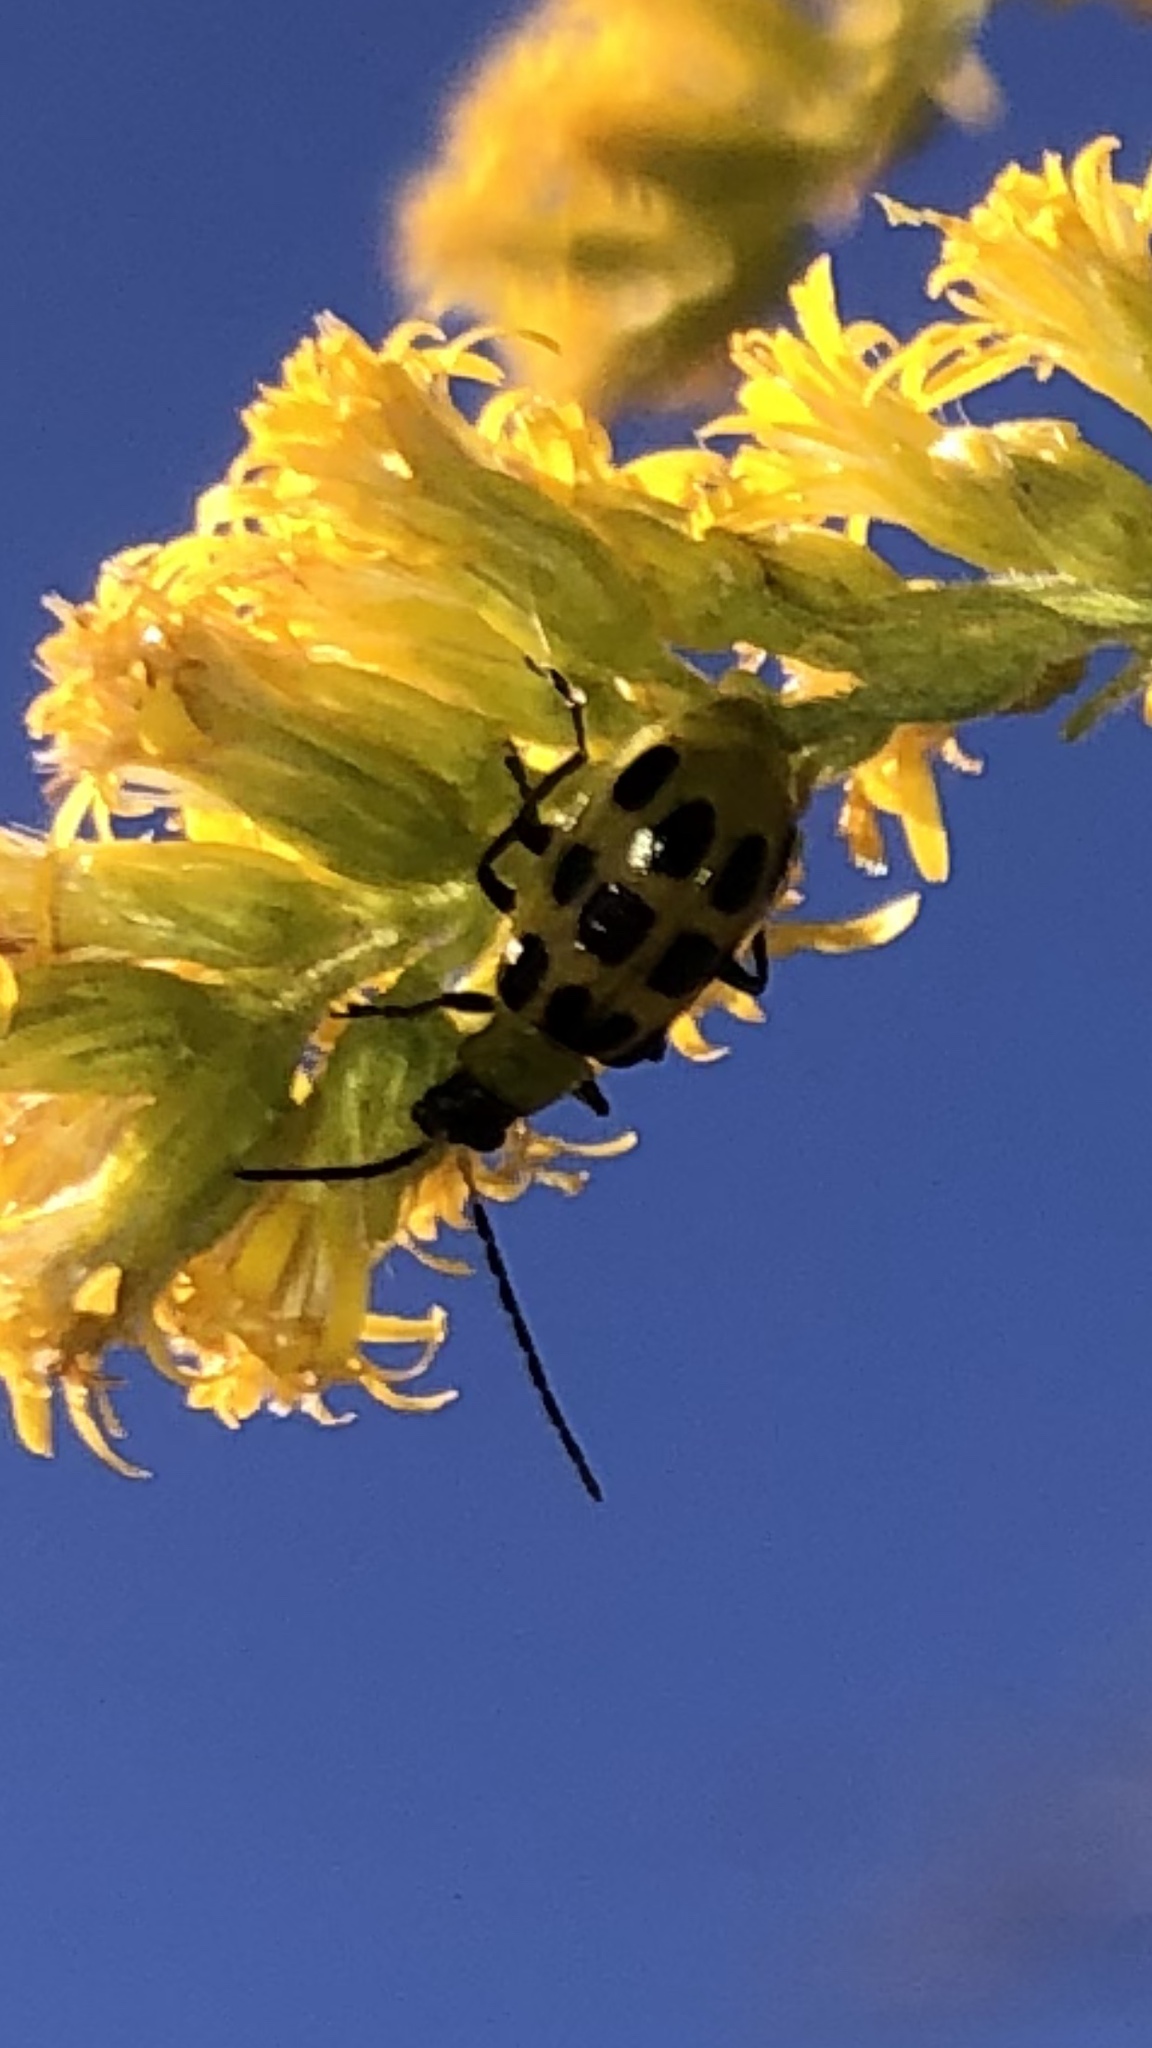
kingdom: Animalia
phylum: Arthropoda
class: Insecta
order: Coleoptera
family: Chrysomelidae
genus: Diabrotica
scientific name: Diabrotica undecimpunctata
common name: Spotted cucumber beetle
